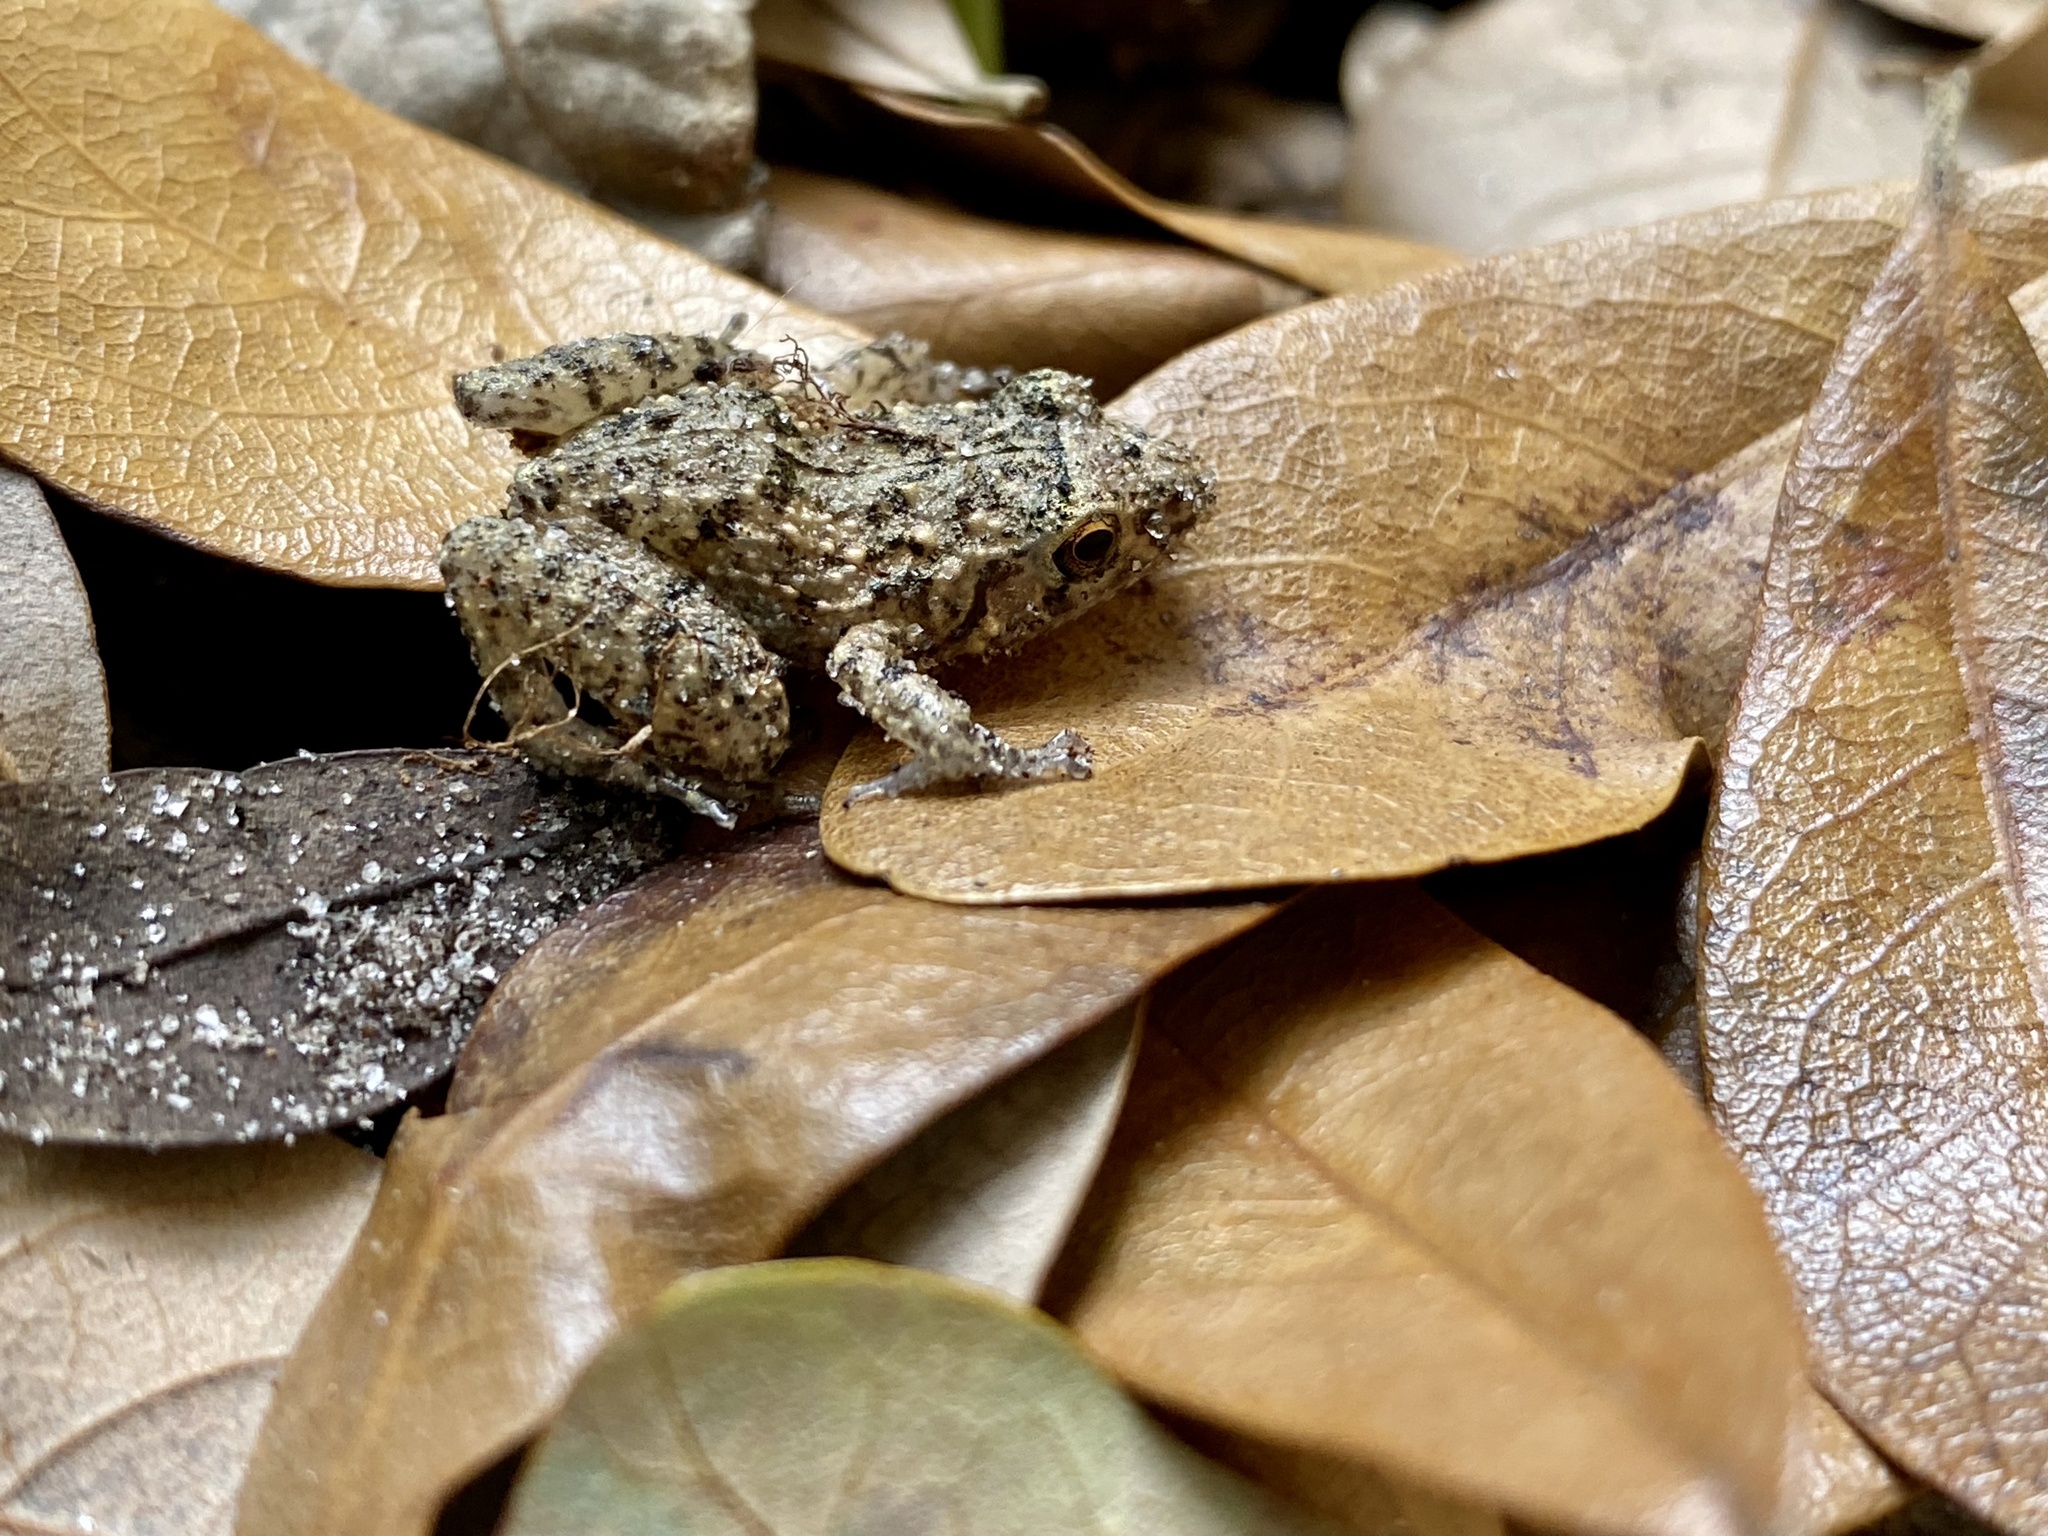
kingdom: Animalia
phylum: Chordata
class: Amphibia
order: Anura
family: Eleutherodactylidae
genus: Eleutherodactylus
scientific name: Eleutherodactylus planirostris
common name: Greenhouse frog
